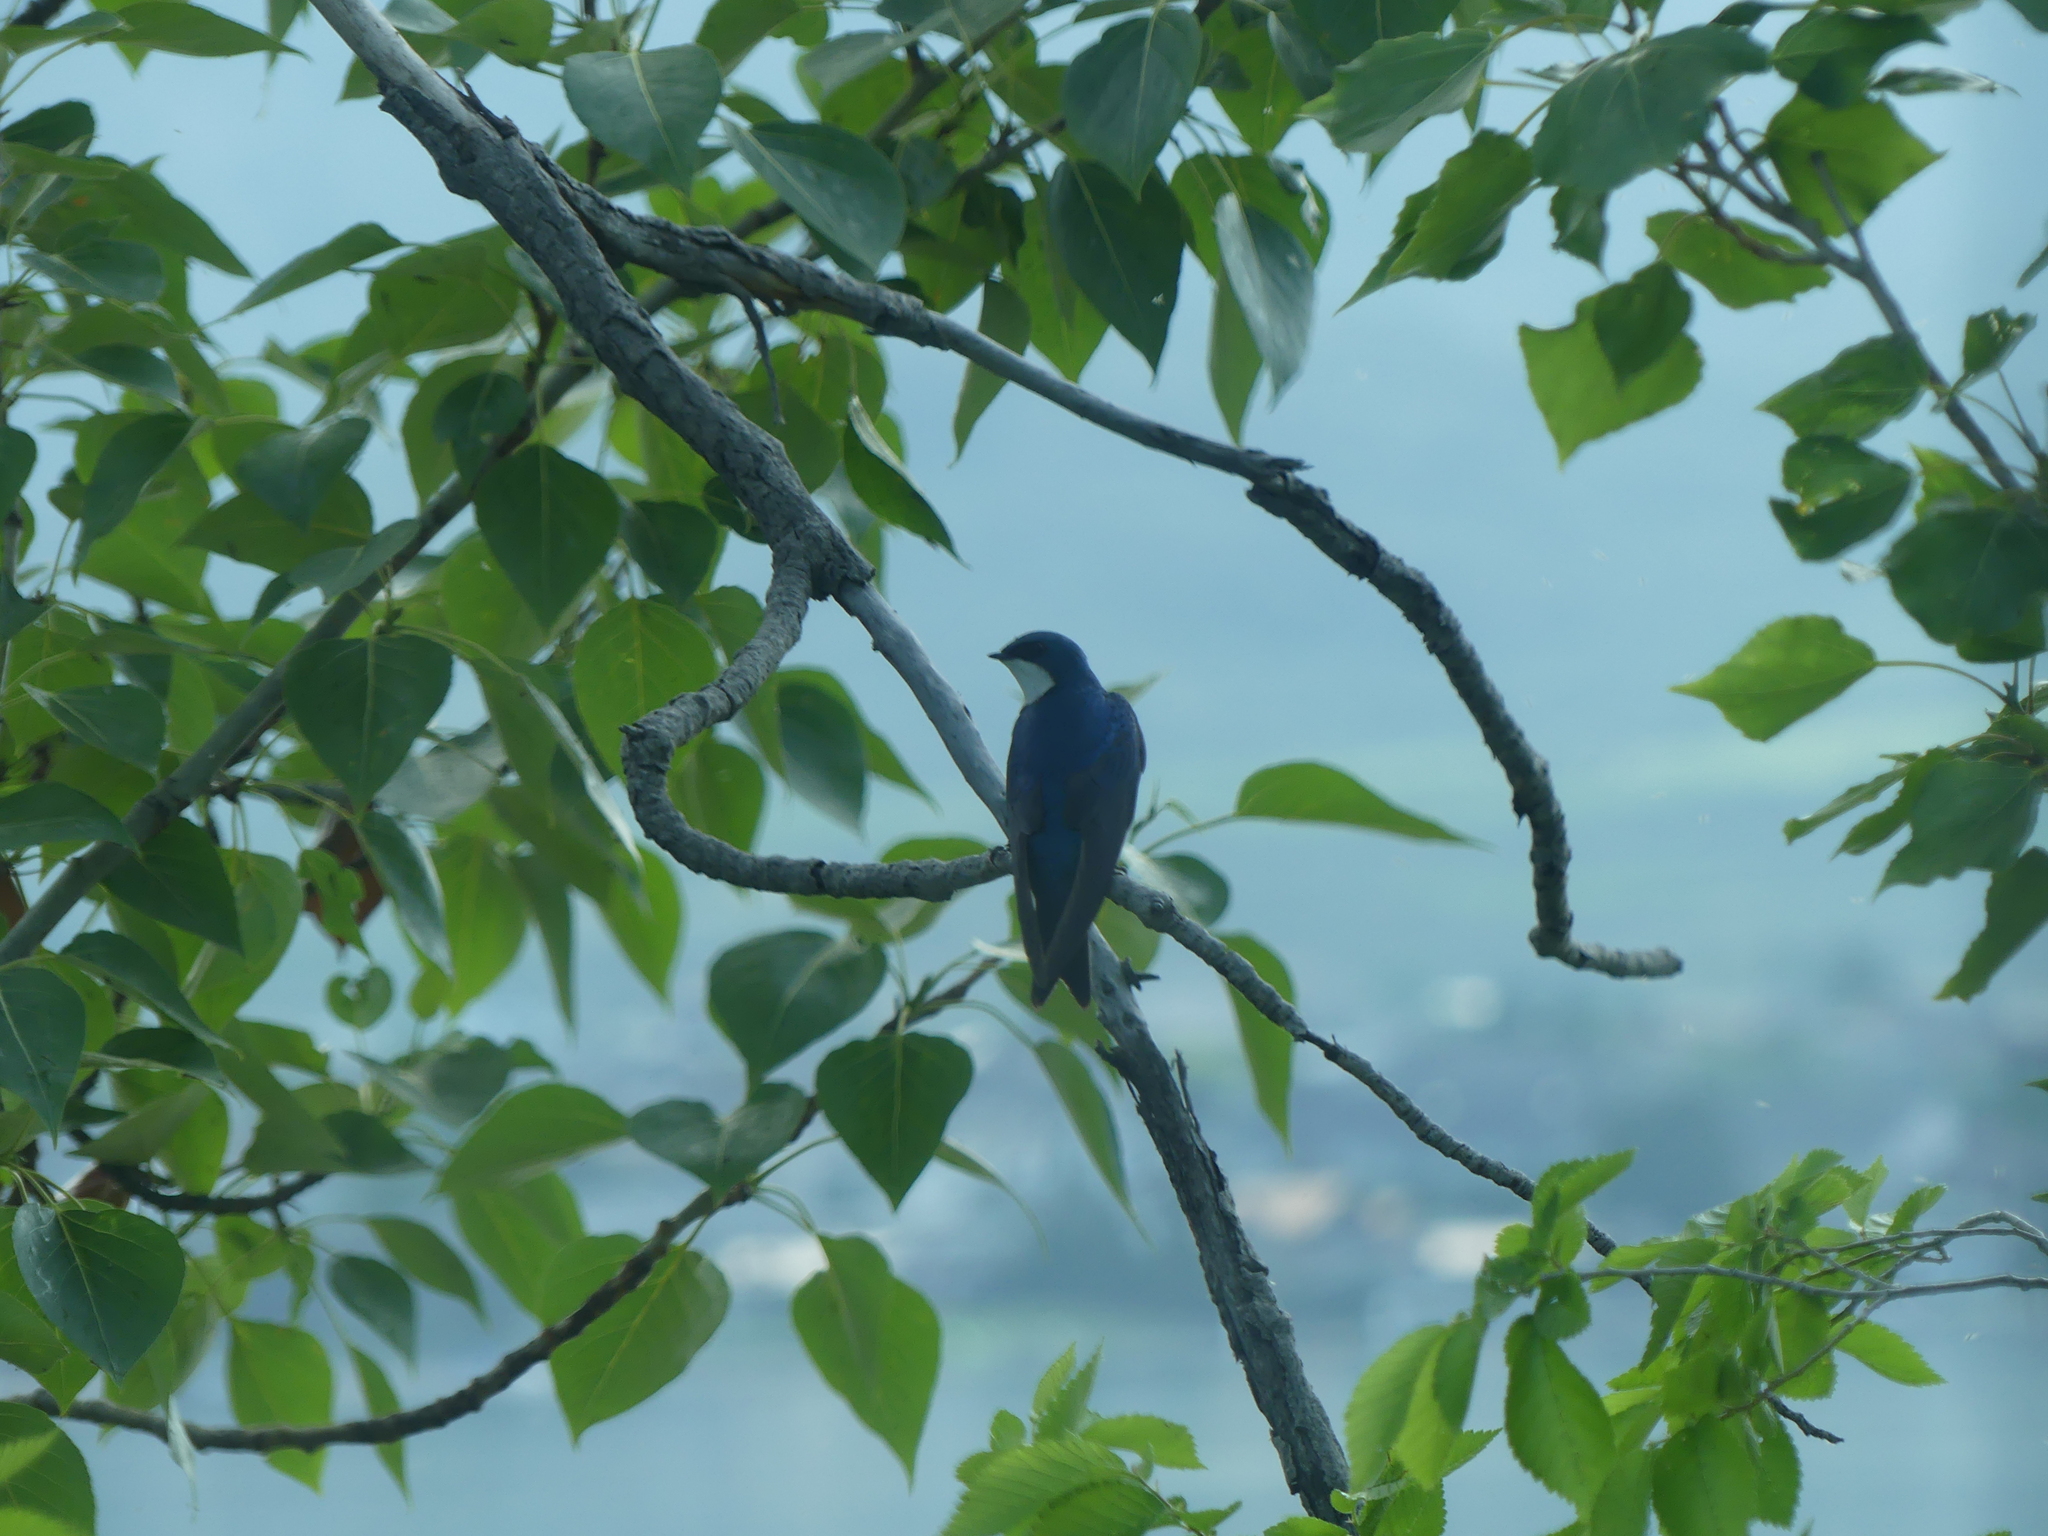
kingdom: Animalia
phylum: Chordata
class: Aves
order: Passeriformes
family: Hirundinidae
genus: Tachycineta
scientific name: Tachycineta bicolor
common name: Tree swallow
